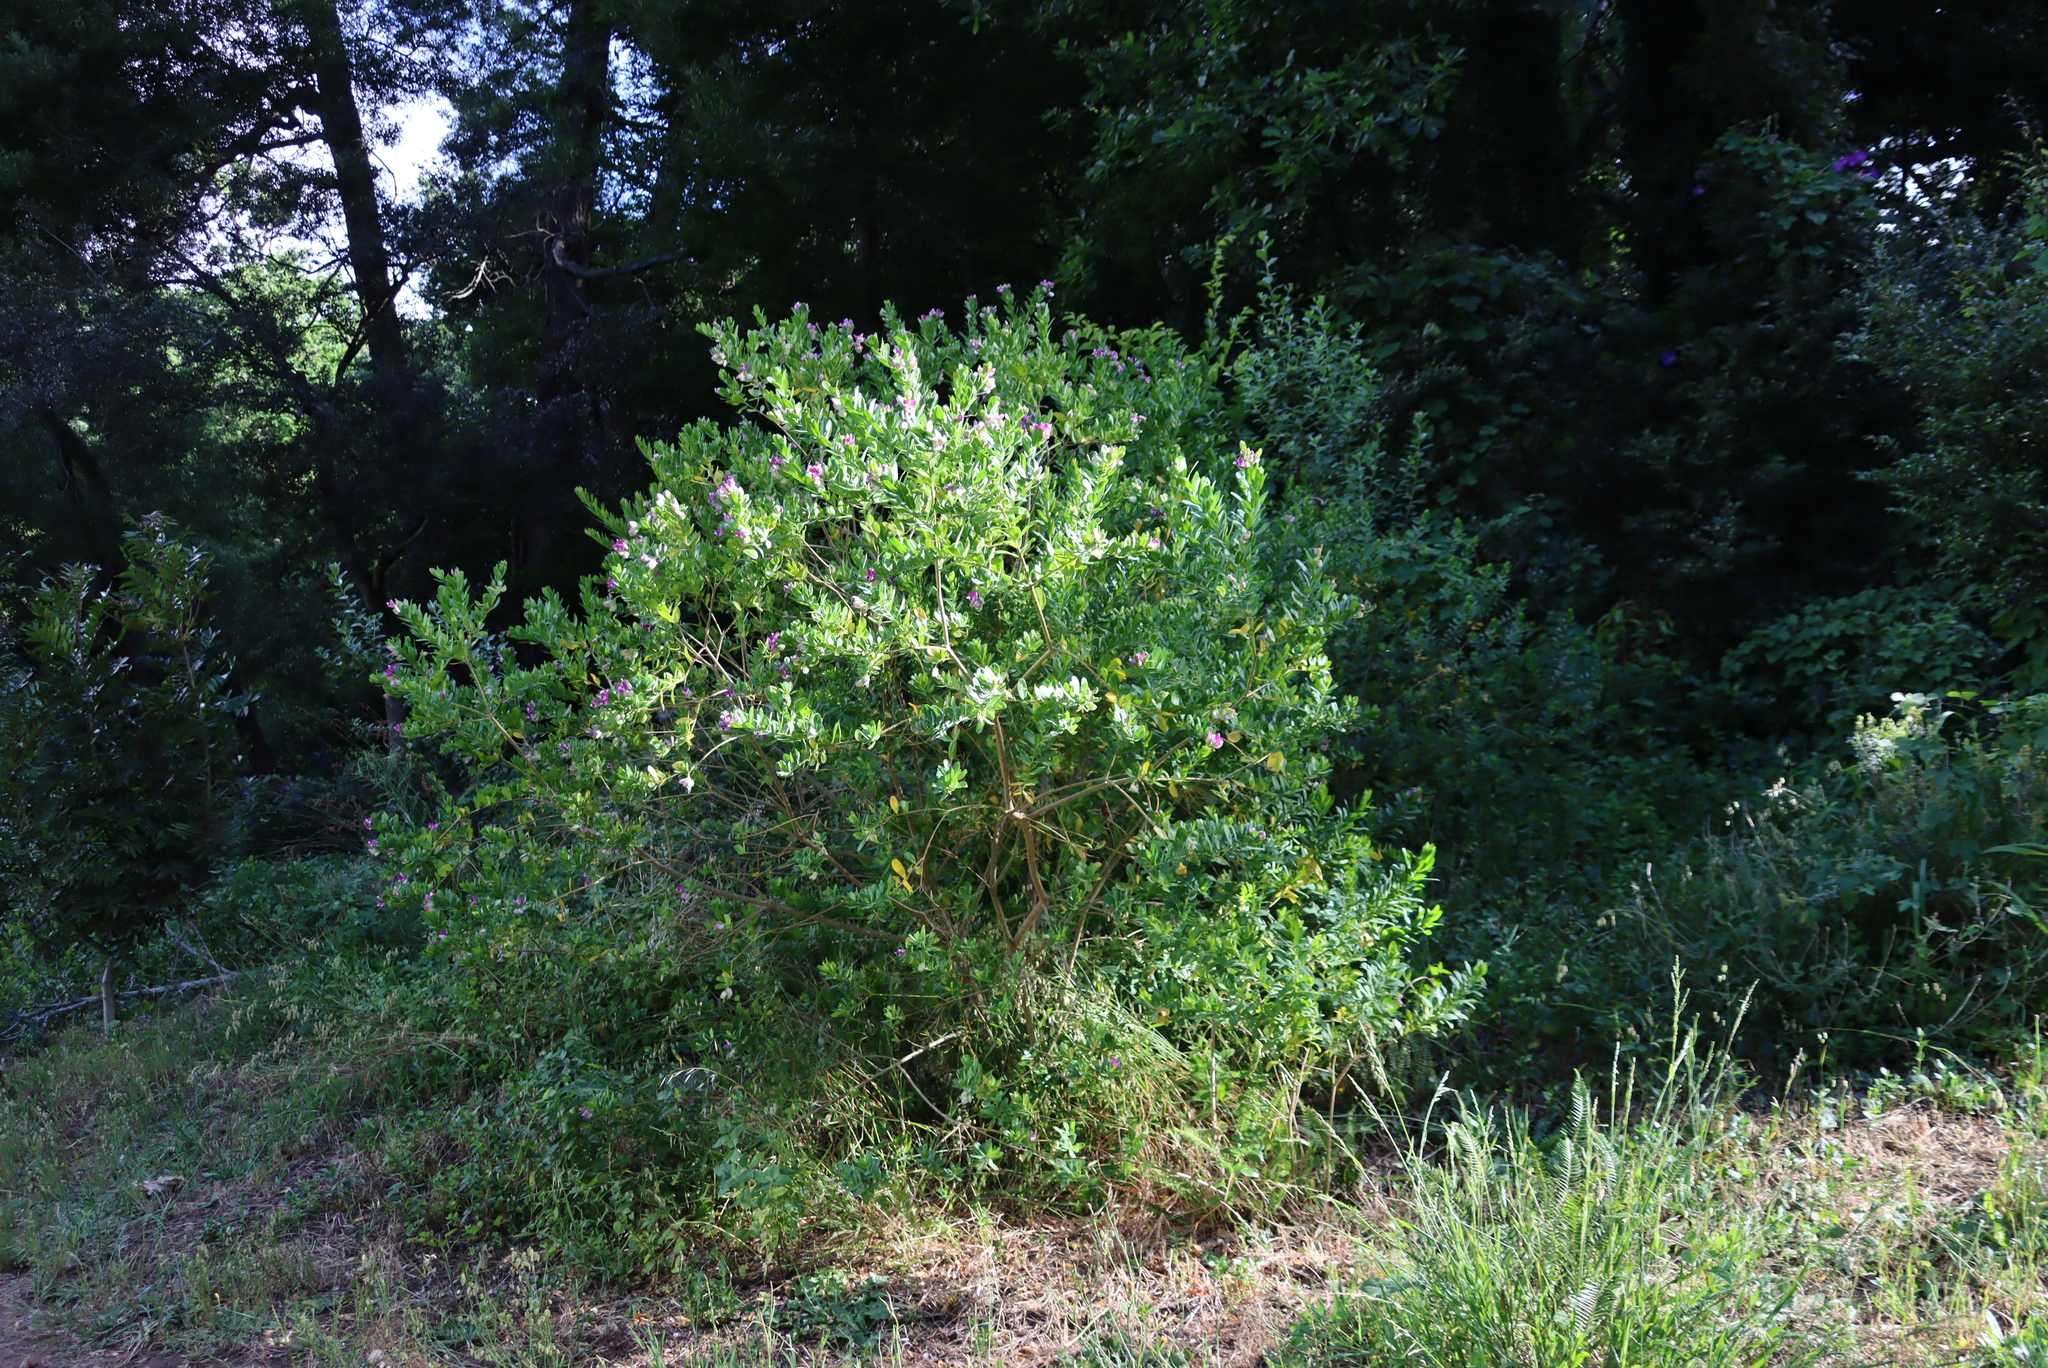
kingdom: Plantae
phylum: Tracheophyta
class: Magnoliopsida
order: Fabales
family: Polygalaceae
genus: Polygala
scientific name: Polygala myrtifolia
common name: Myrtle-leaf milkwort
